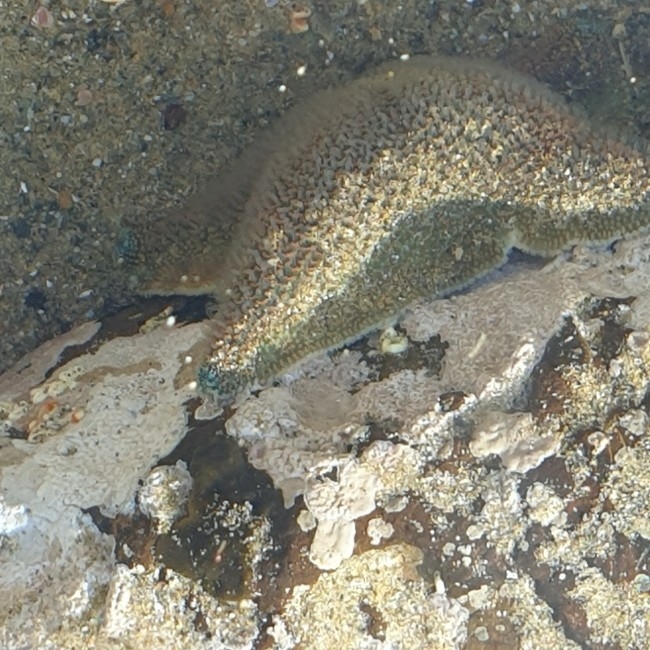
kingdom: Animalia
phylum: Echinodermata
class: Asteroidea
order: Valvatida
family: Asterinidae
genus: Patiriella
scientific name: Patiriella regularis
